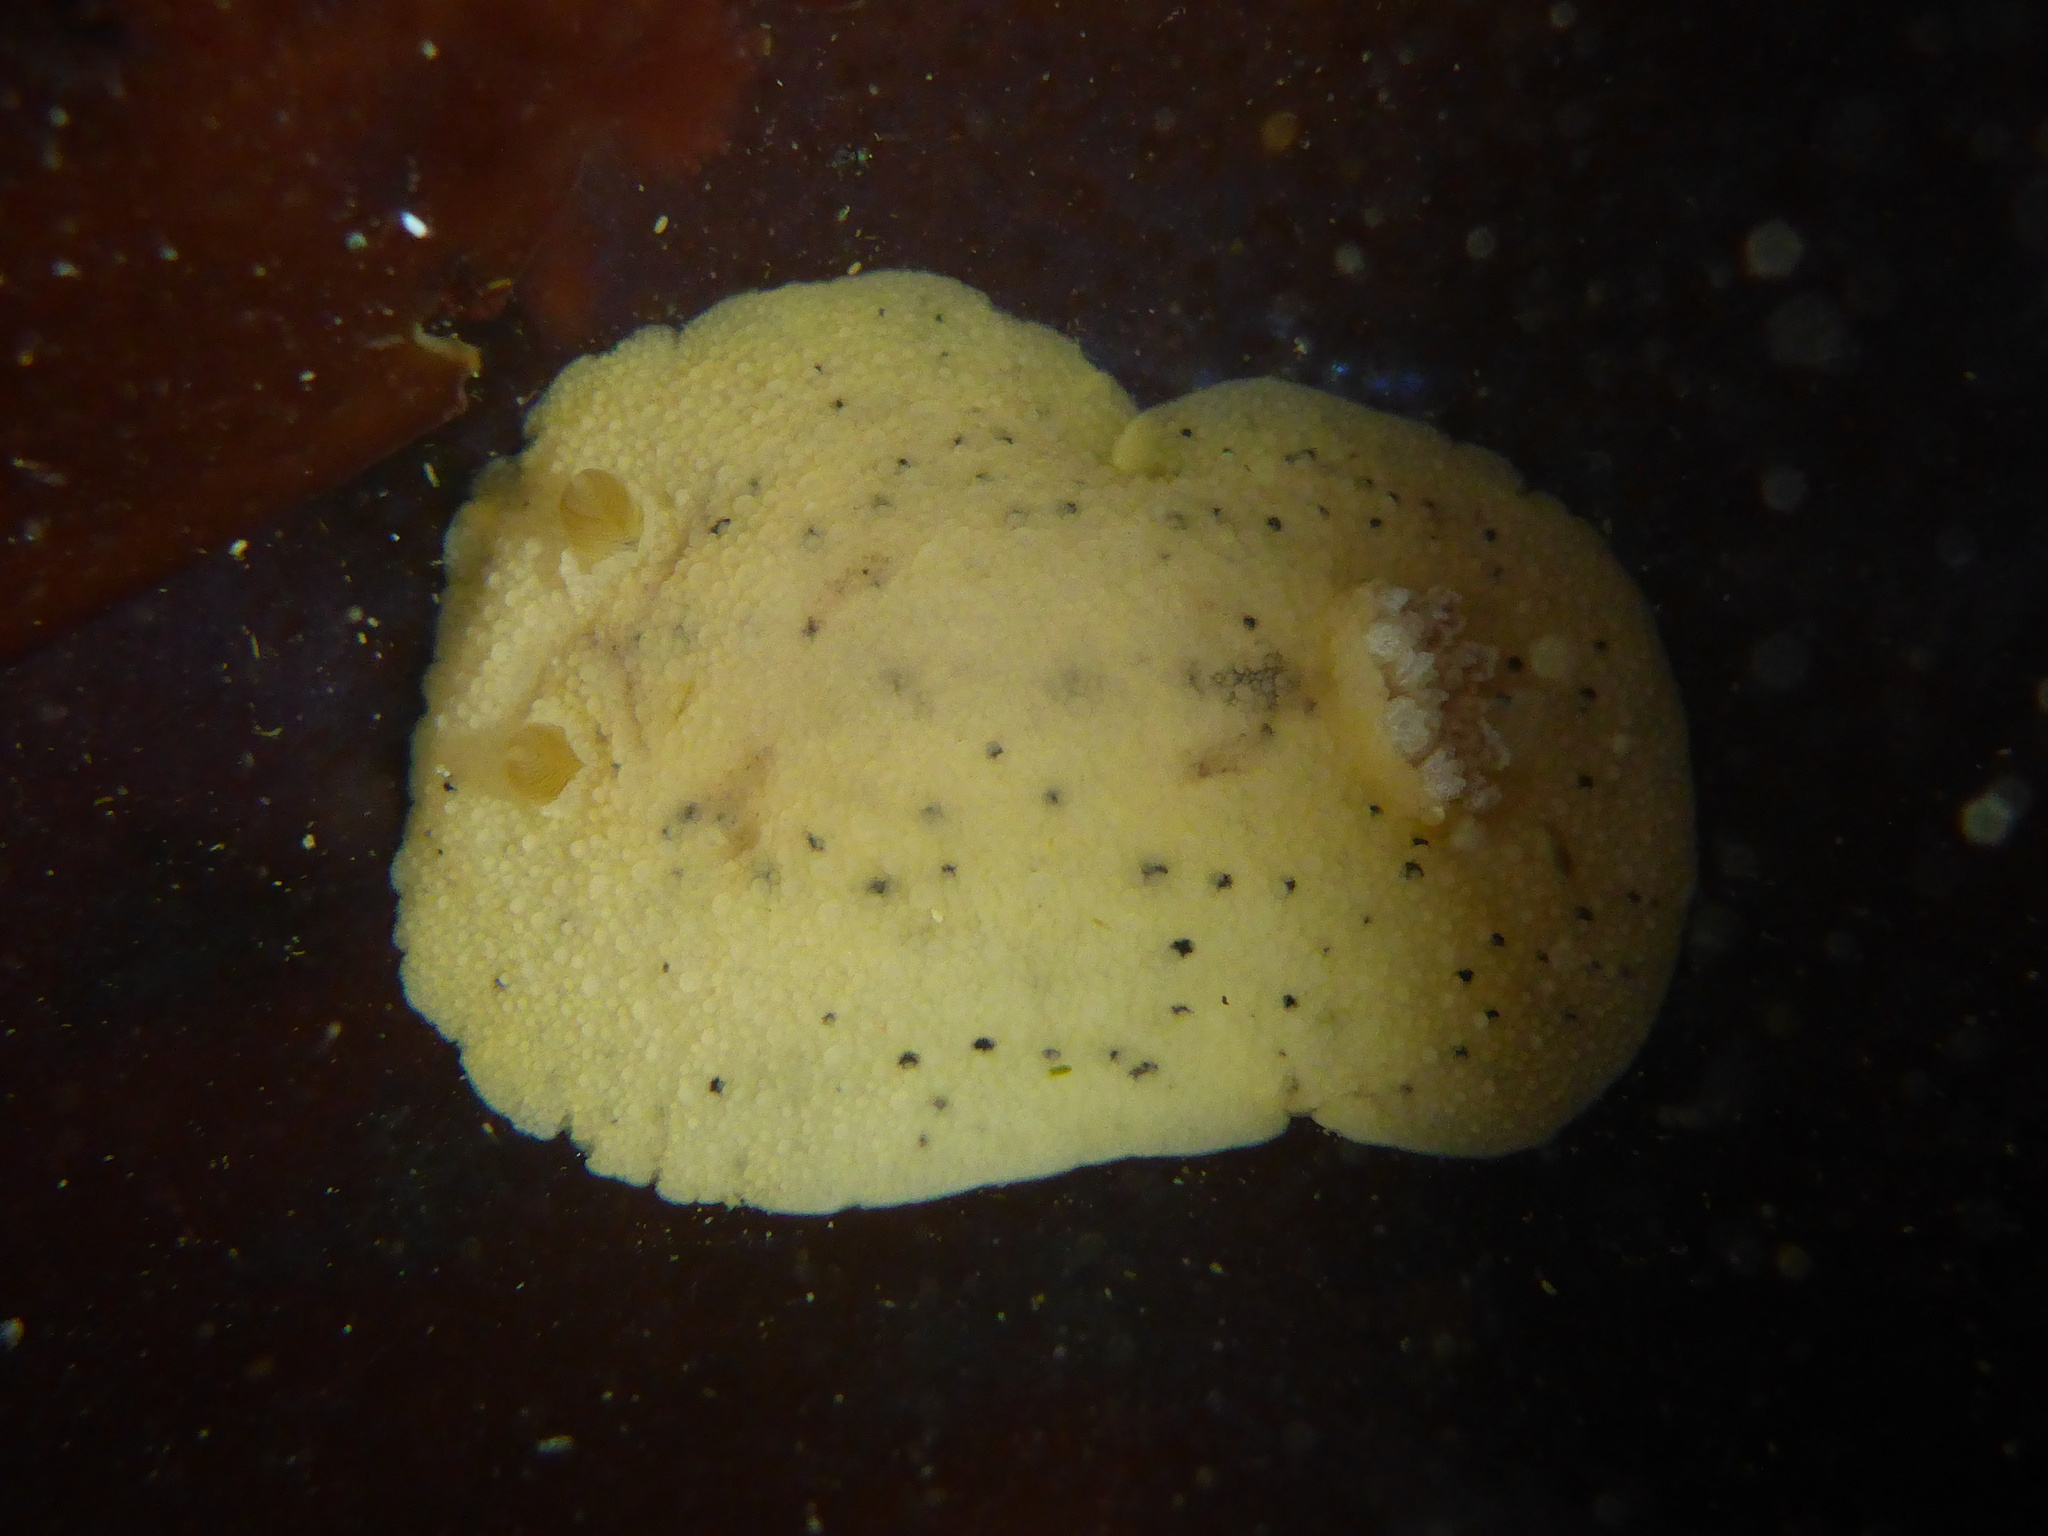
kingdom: Animalia
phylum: Mollusca
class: Gastropoda
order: Nudibranchia
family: Discodorididae
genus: Geitodoris
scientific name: Geitodoris heathi
